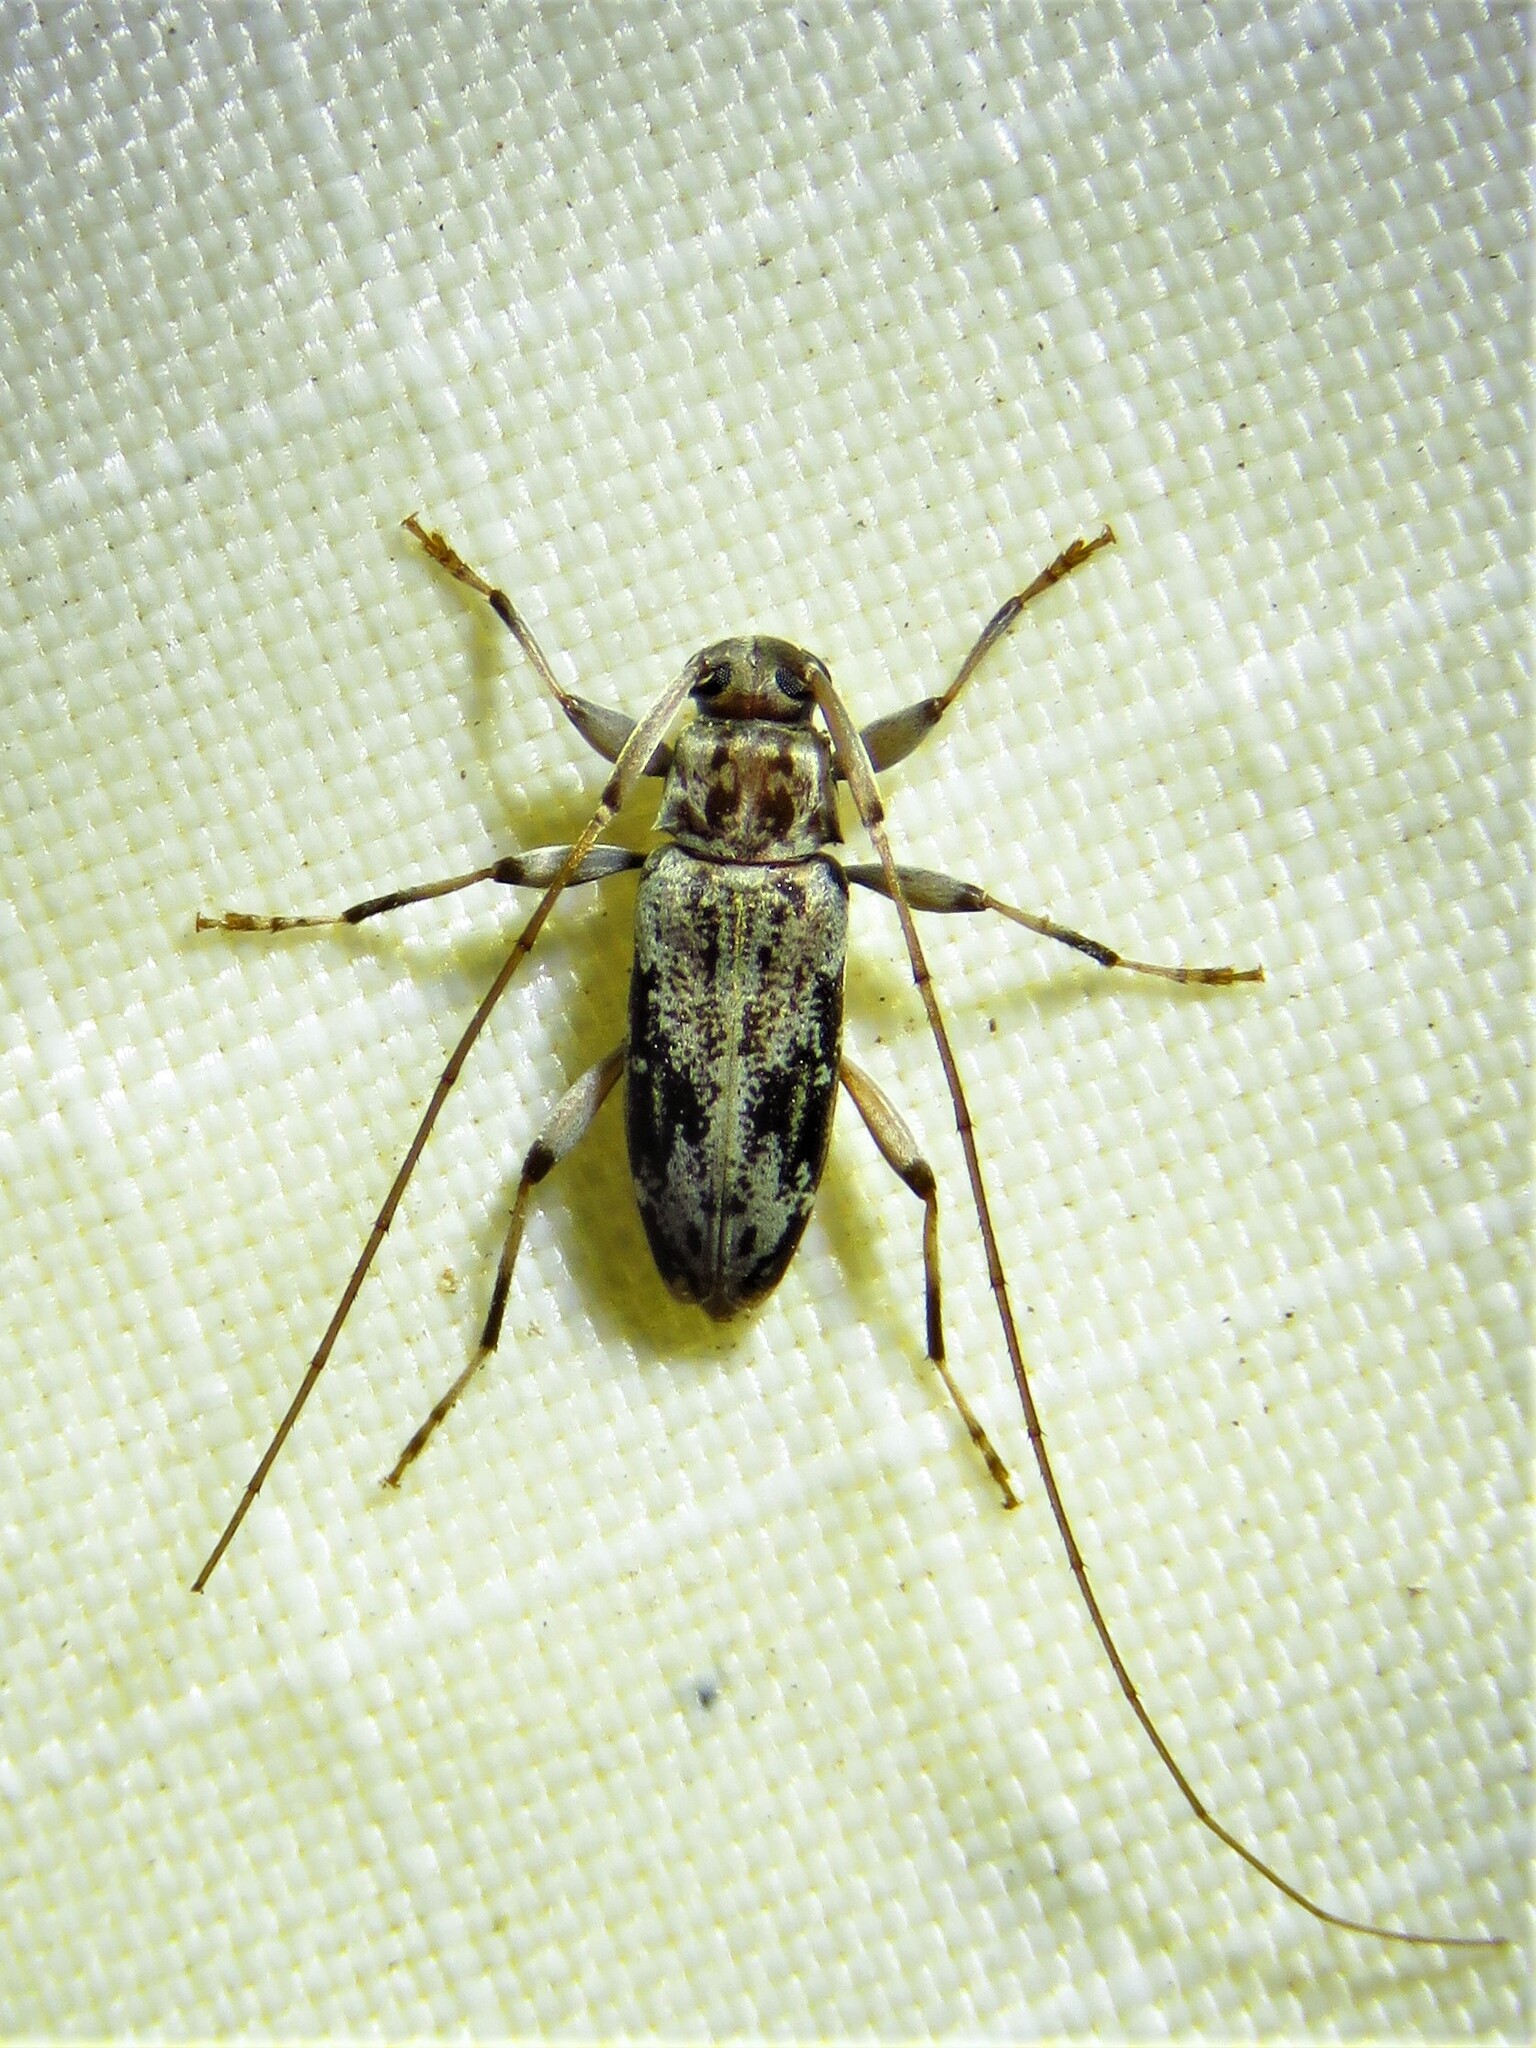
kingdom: Animalia
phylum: Arthropoda
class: Insecta
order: Coleoptera
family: Cerambycidae
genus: Lepturges
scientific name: Lepturges angulatus
